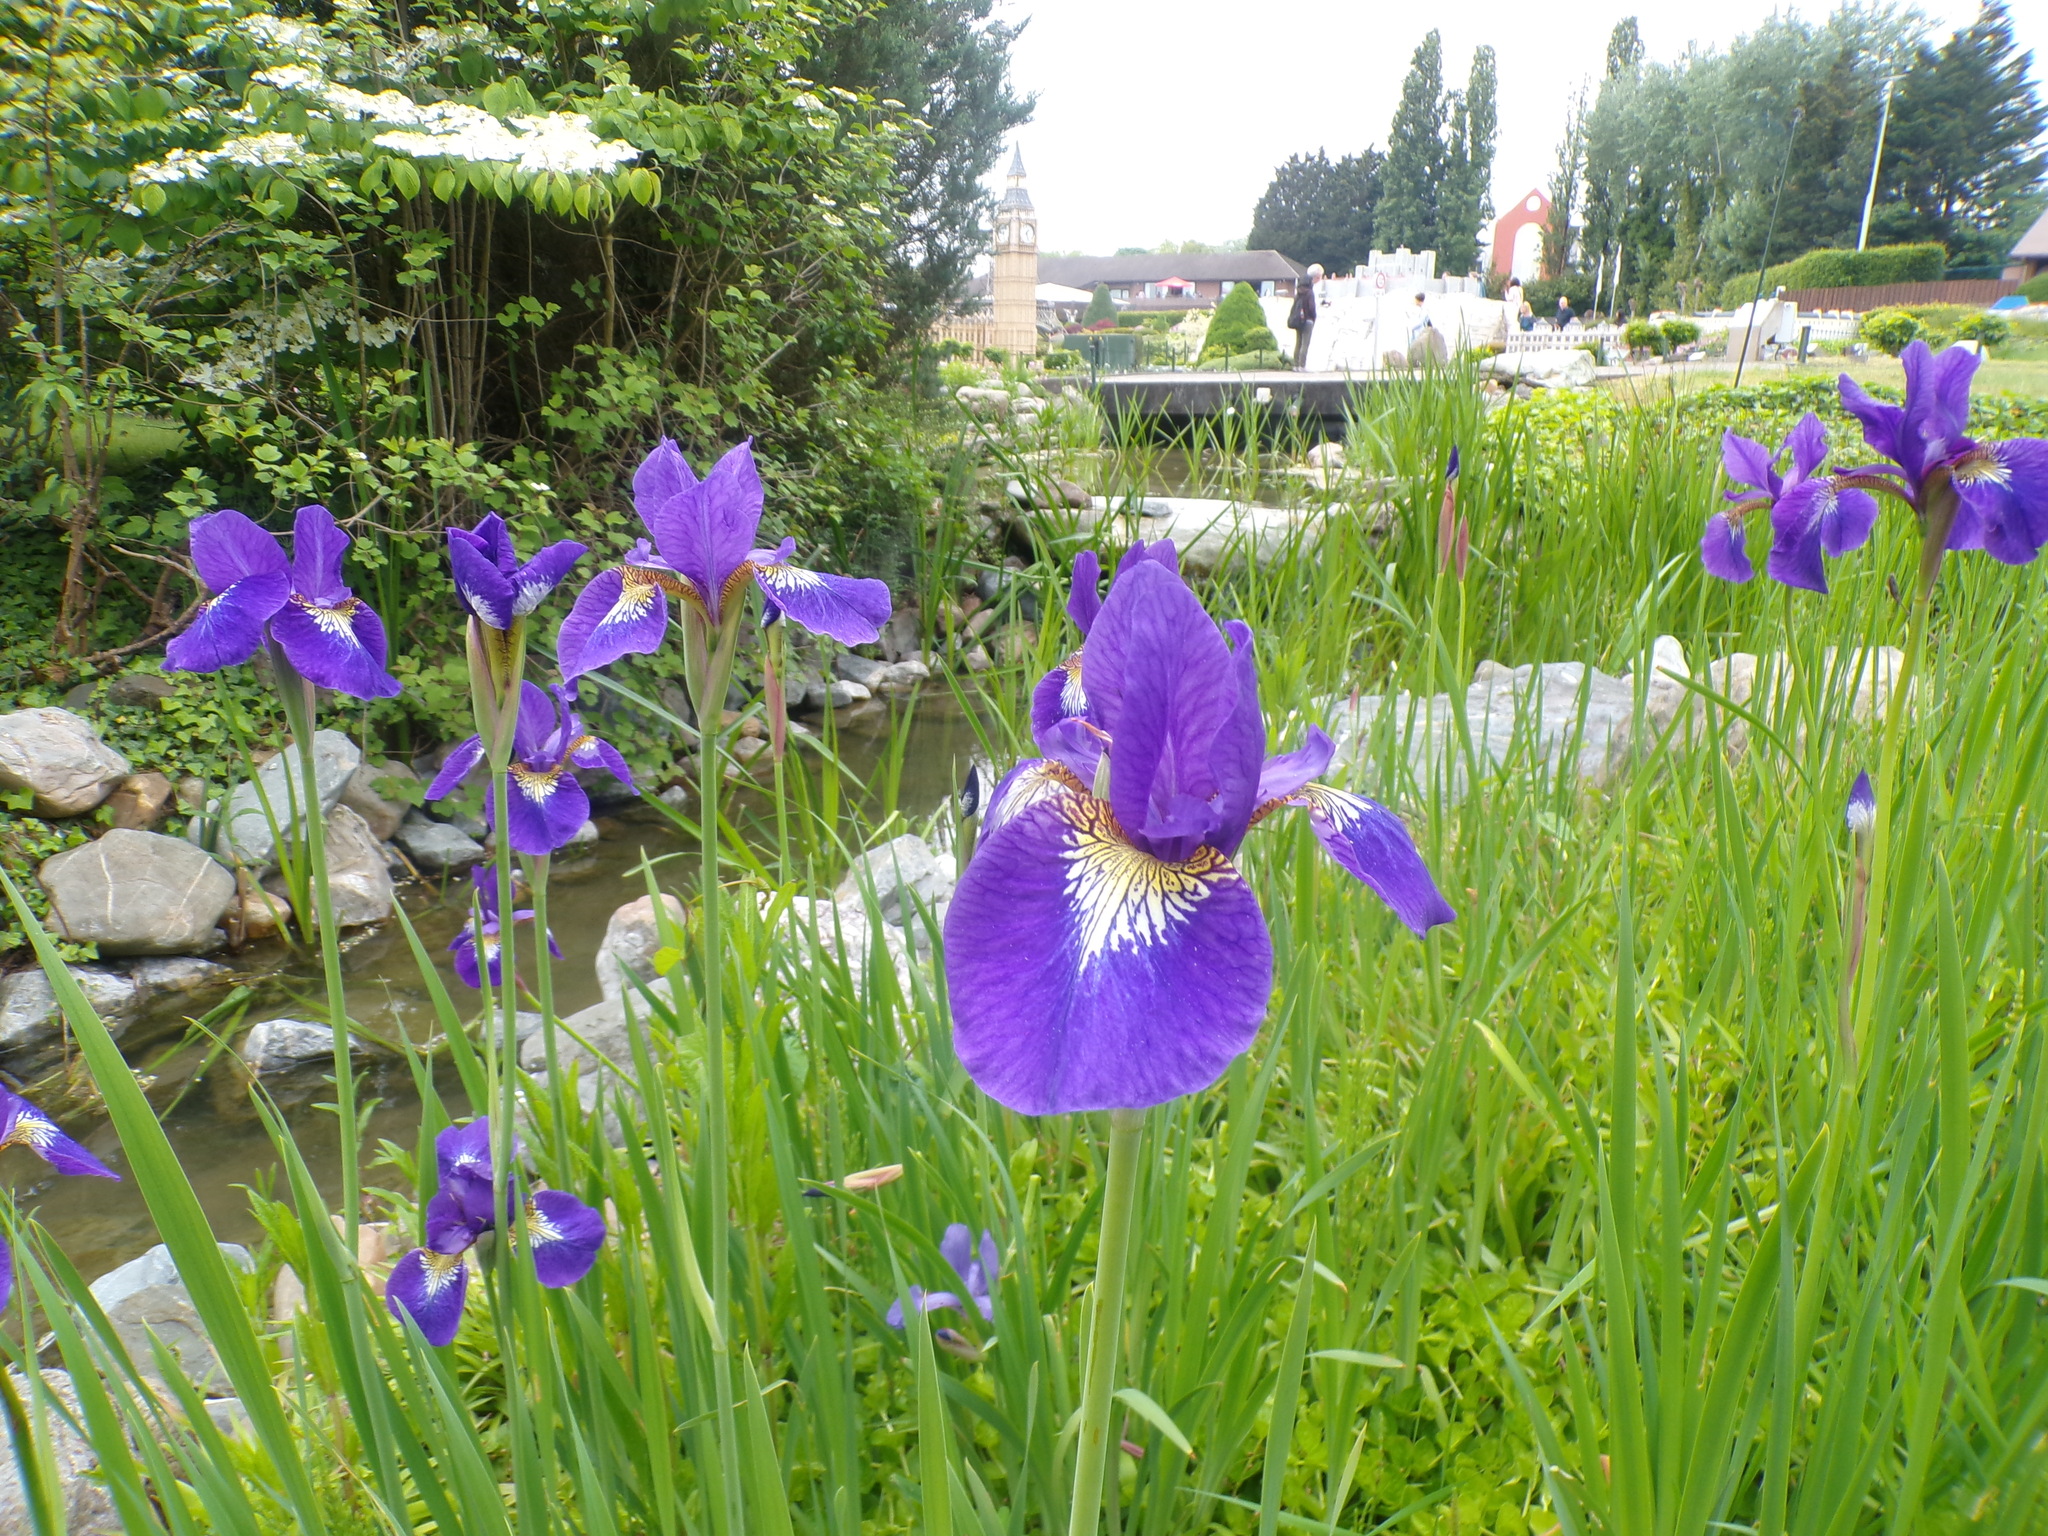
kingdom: Plantae
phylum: Tracheophyta
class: Liliopsida
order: Asparagales
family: Iridaceae
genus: Iris
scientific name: Iris sanguinea
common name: Blood iris
